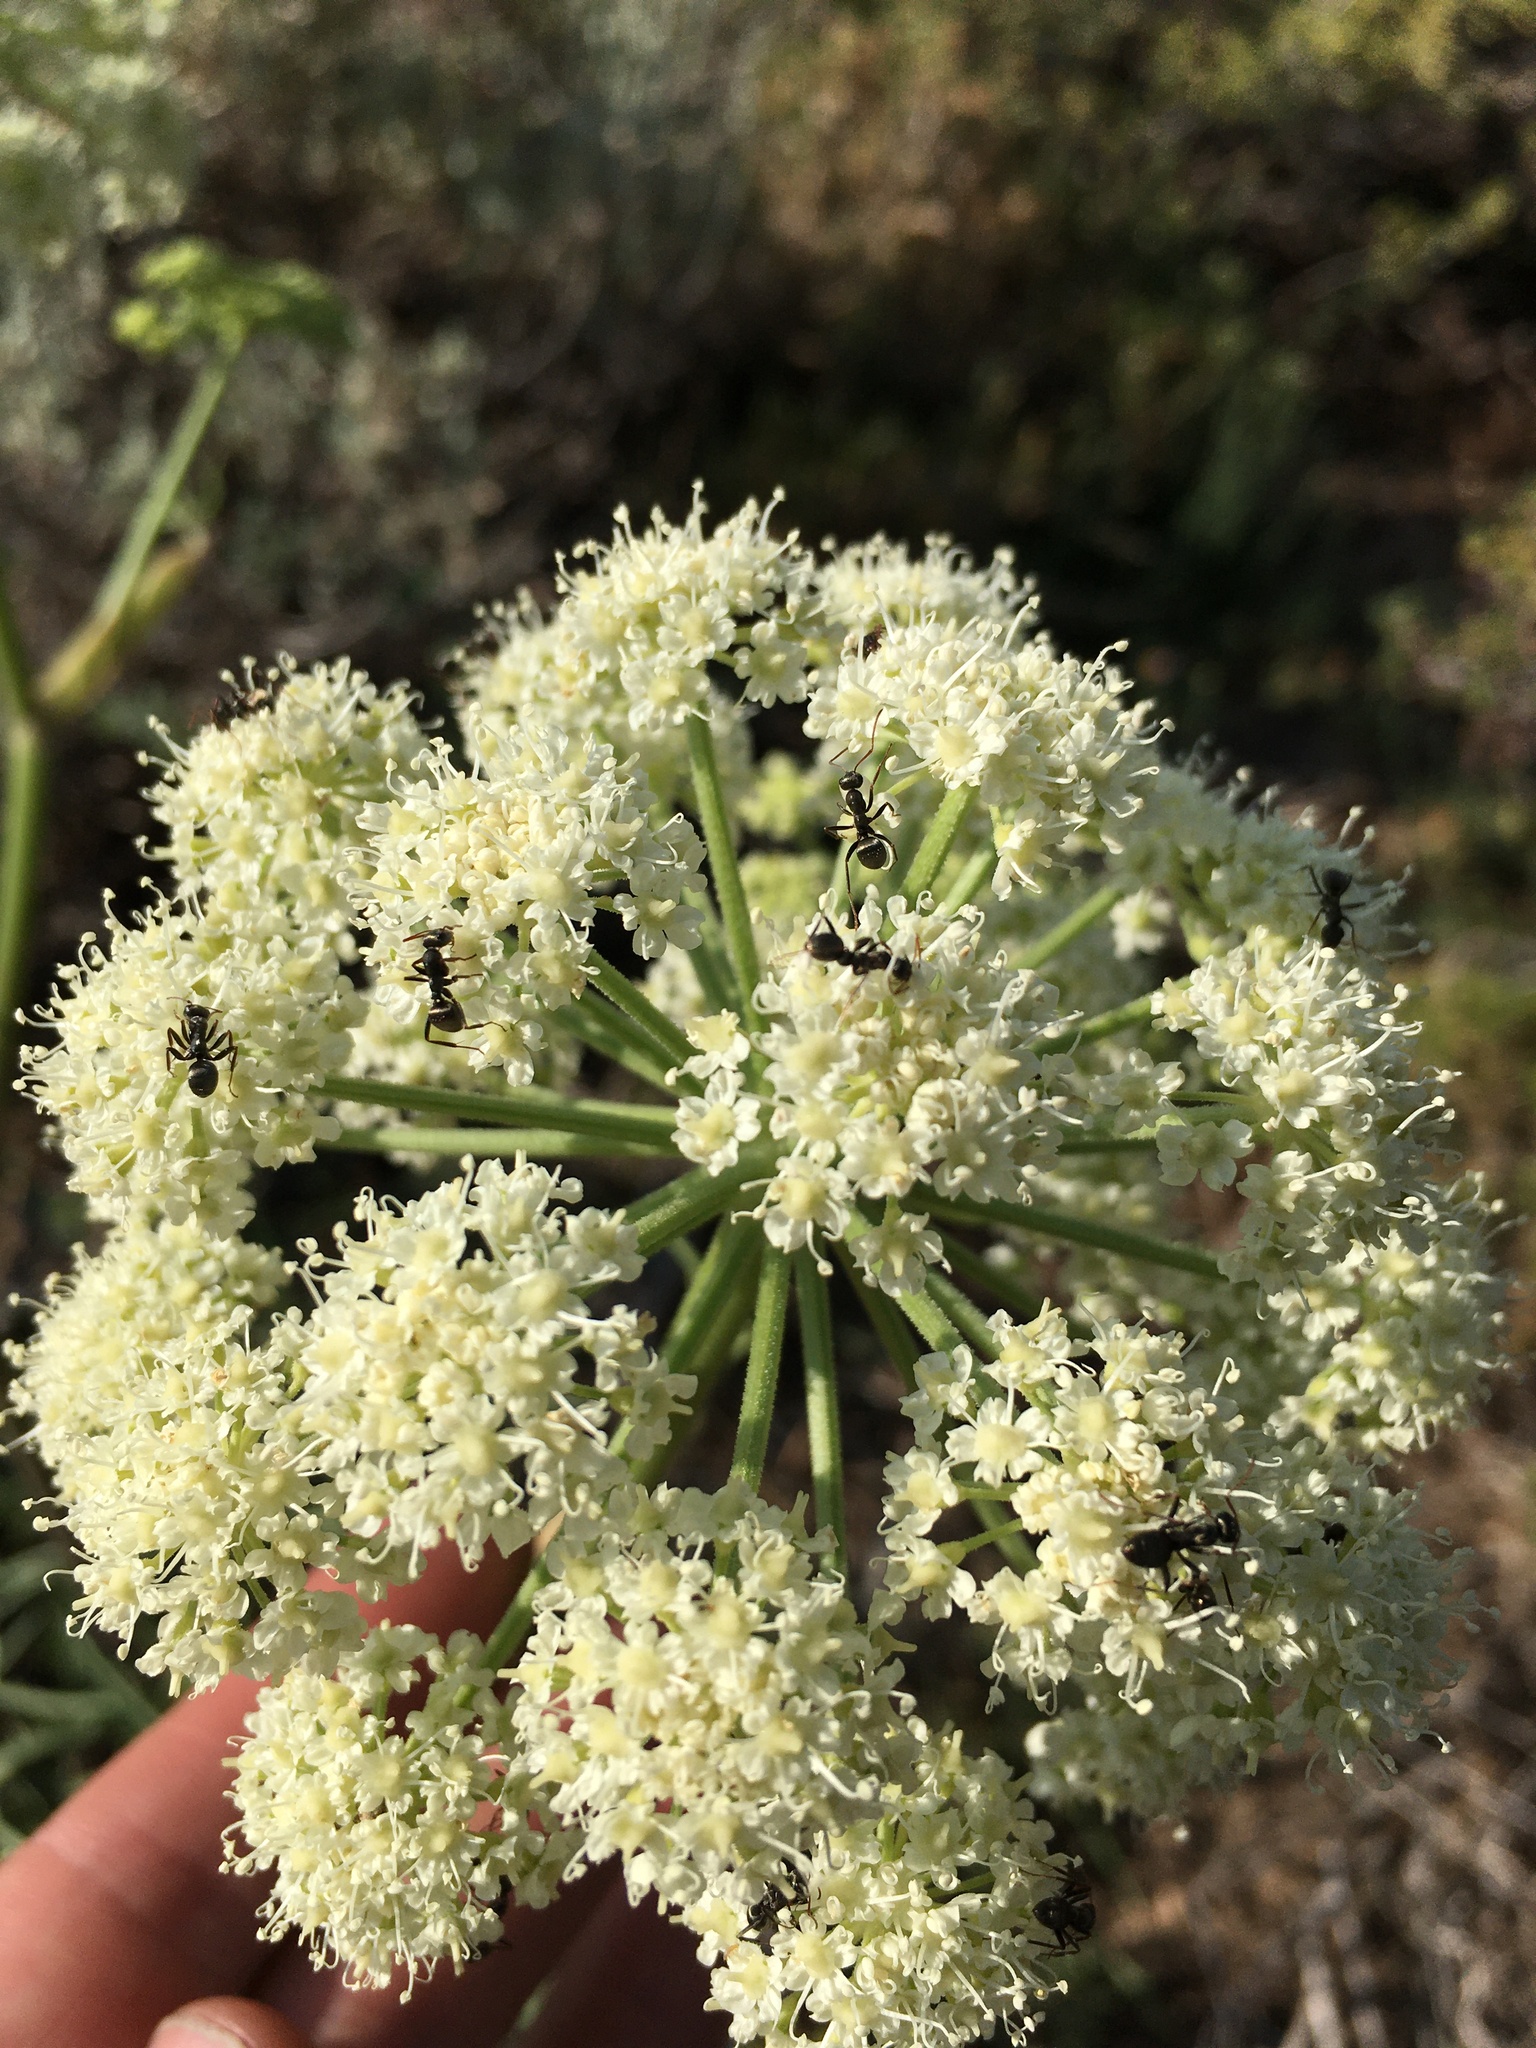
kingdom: Plantae
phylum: Tracheophyta
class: Magnoliopsida
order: Apiales
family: Apiaceae
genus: Angelica
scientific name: Angelica lineariloba
